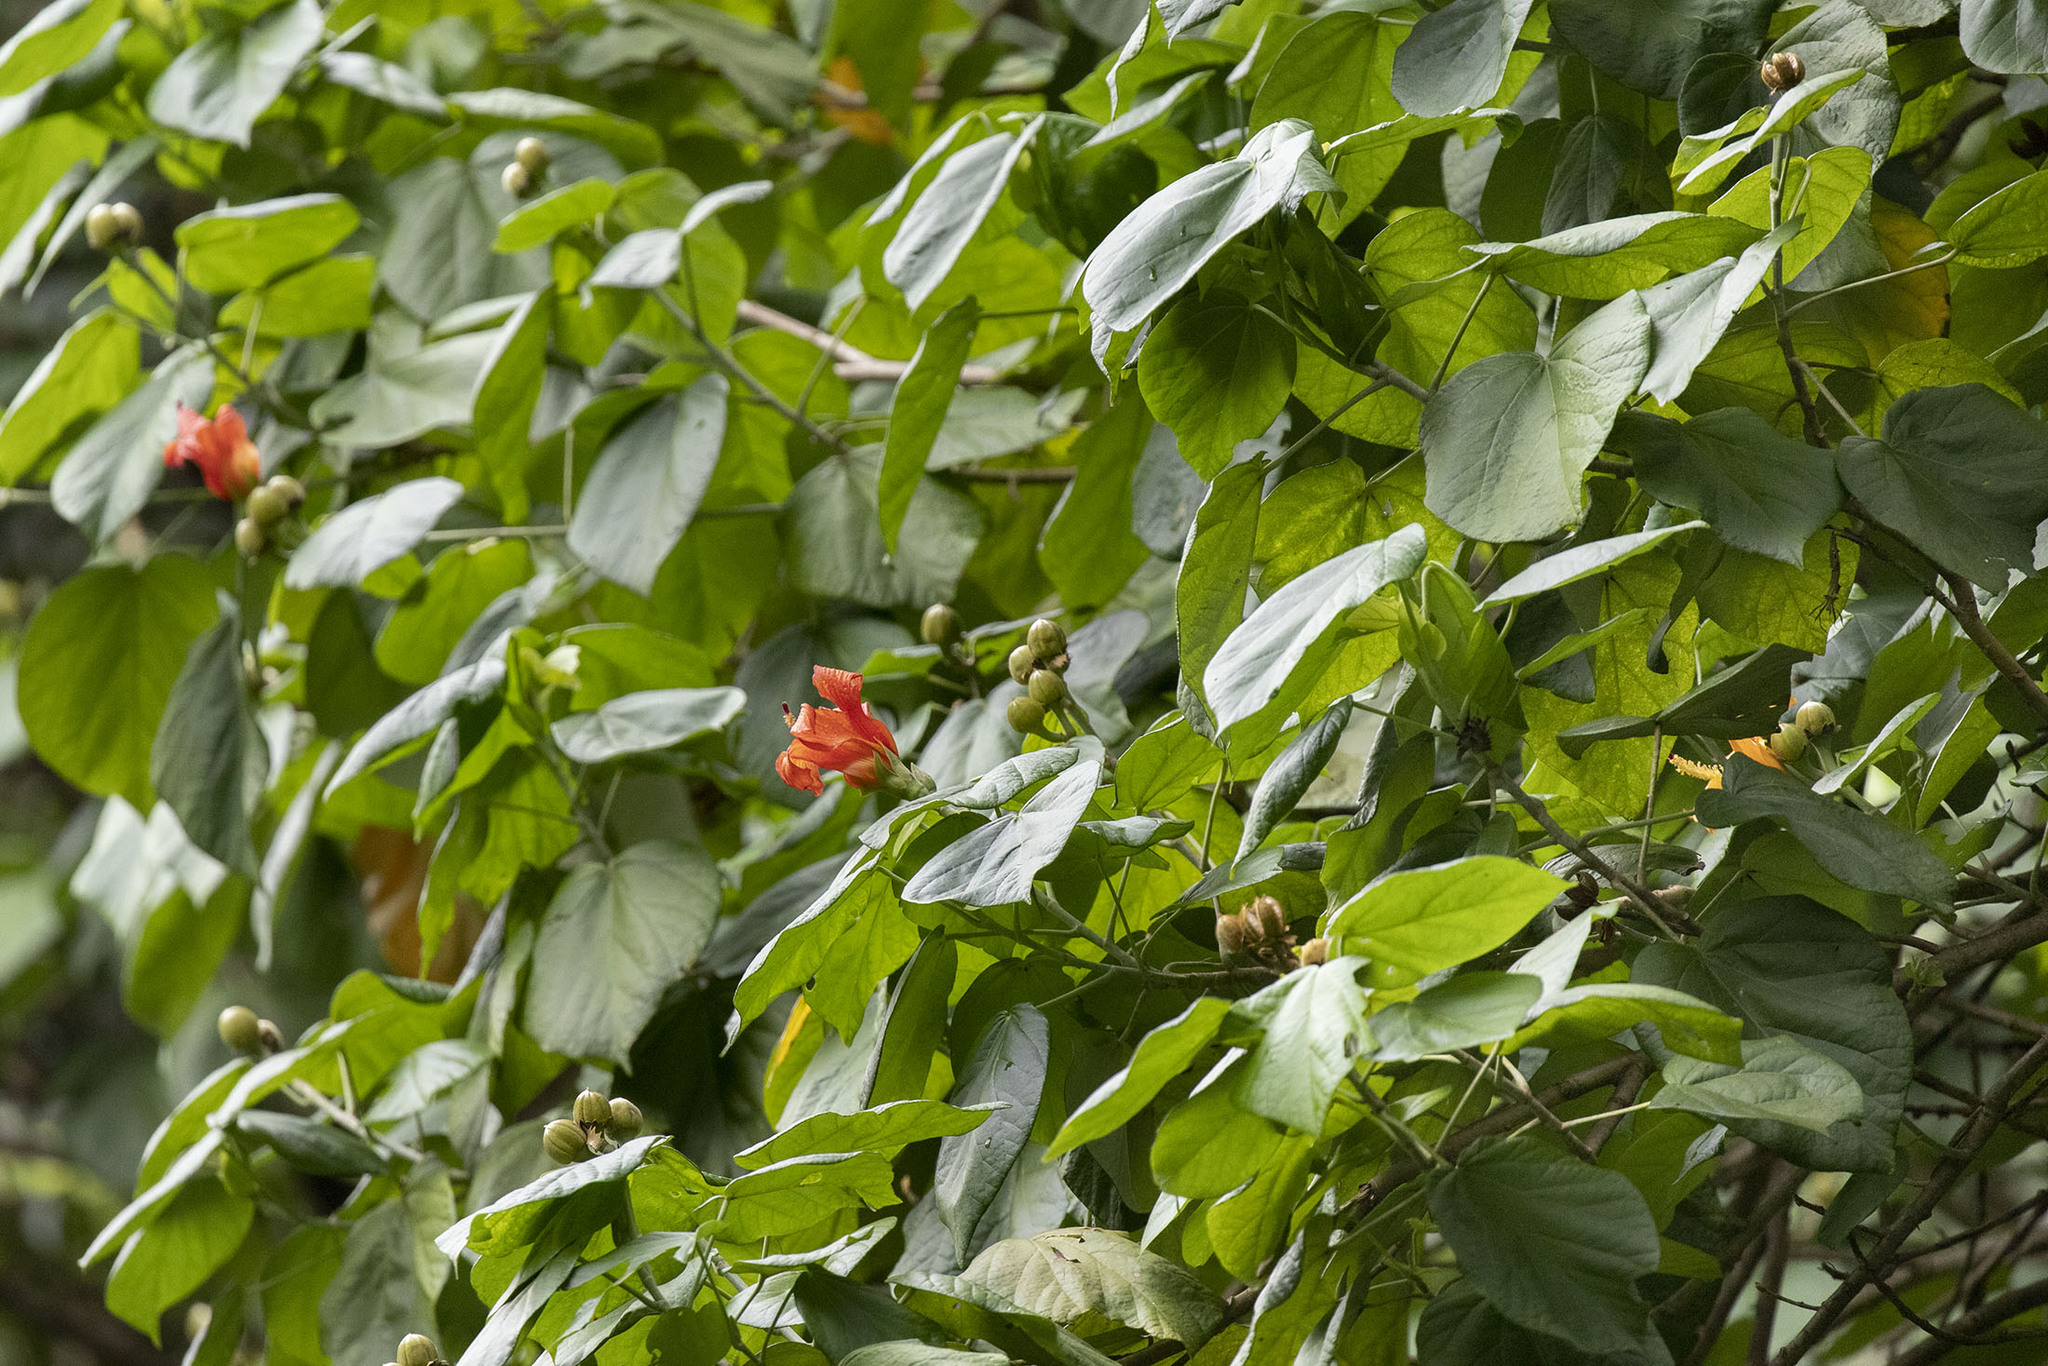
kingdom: Plantae
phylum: Tracheophyta
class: Magnoliopsida
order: Malvales
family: Malvaceae
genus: Talipariti
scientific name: Talipariti
